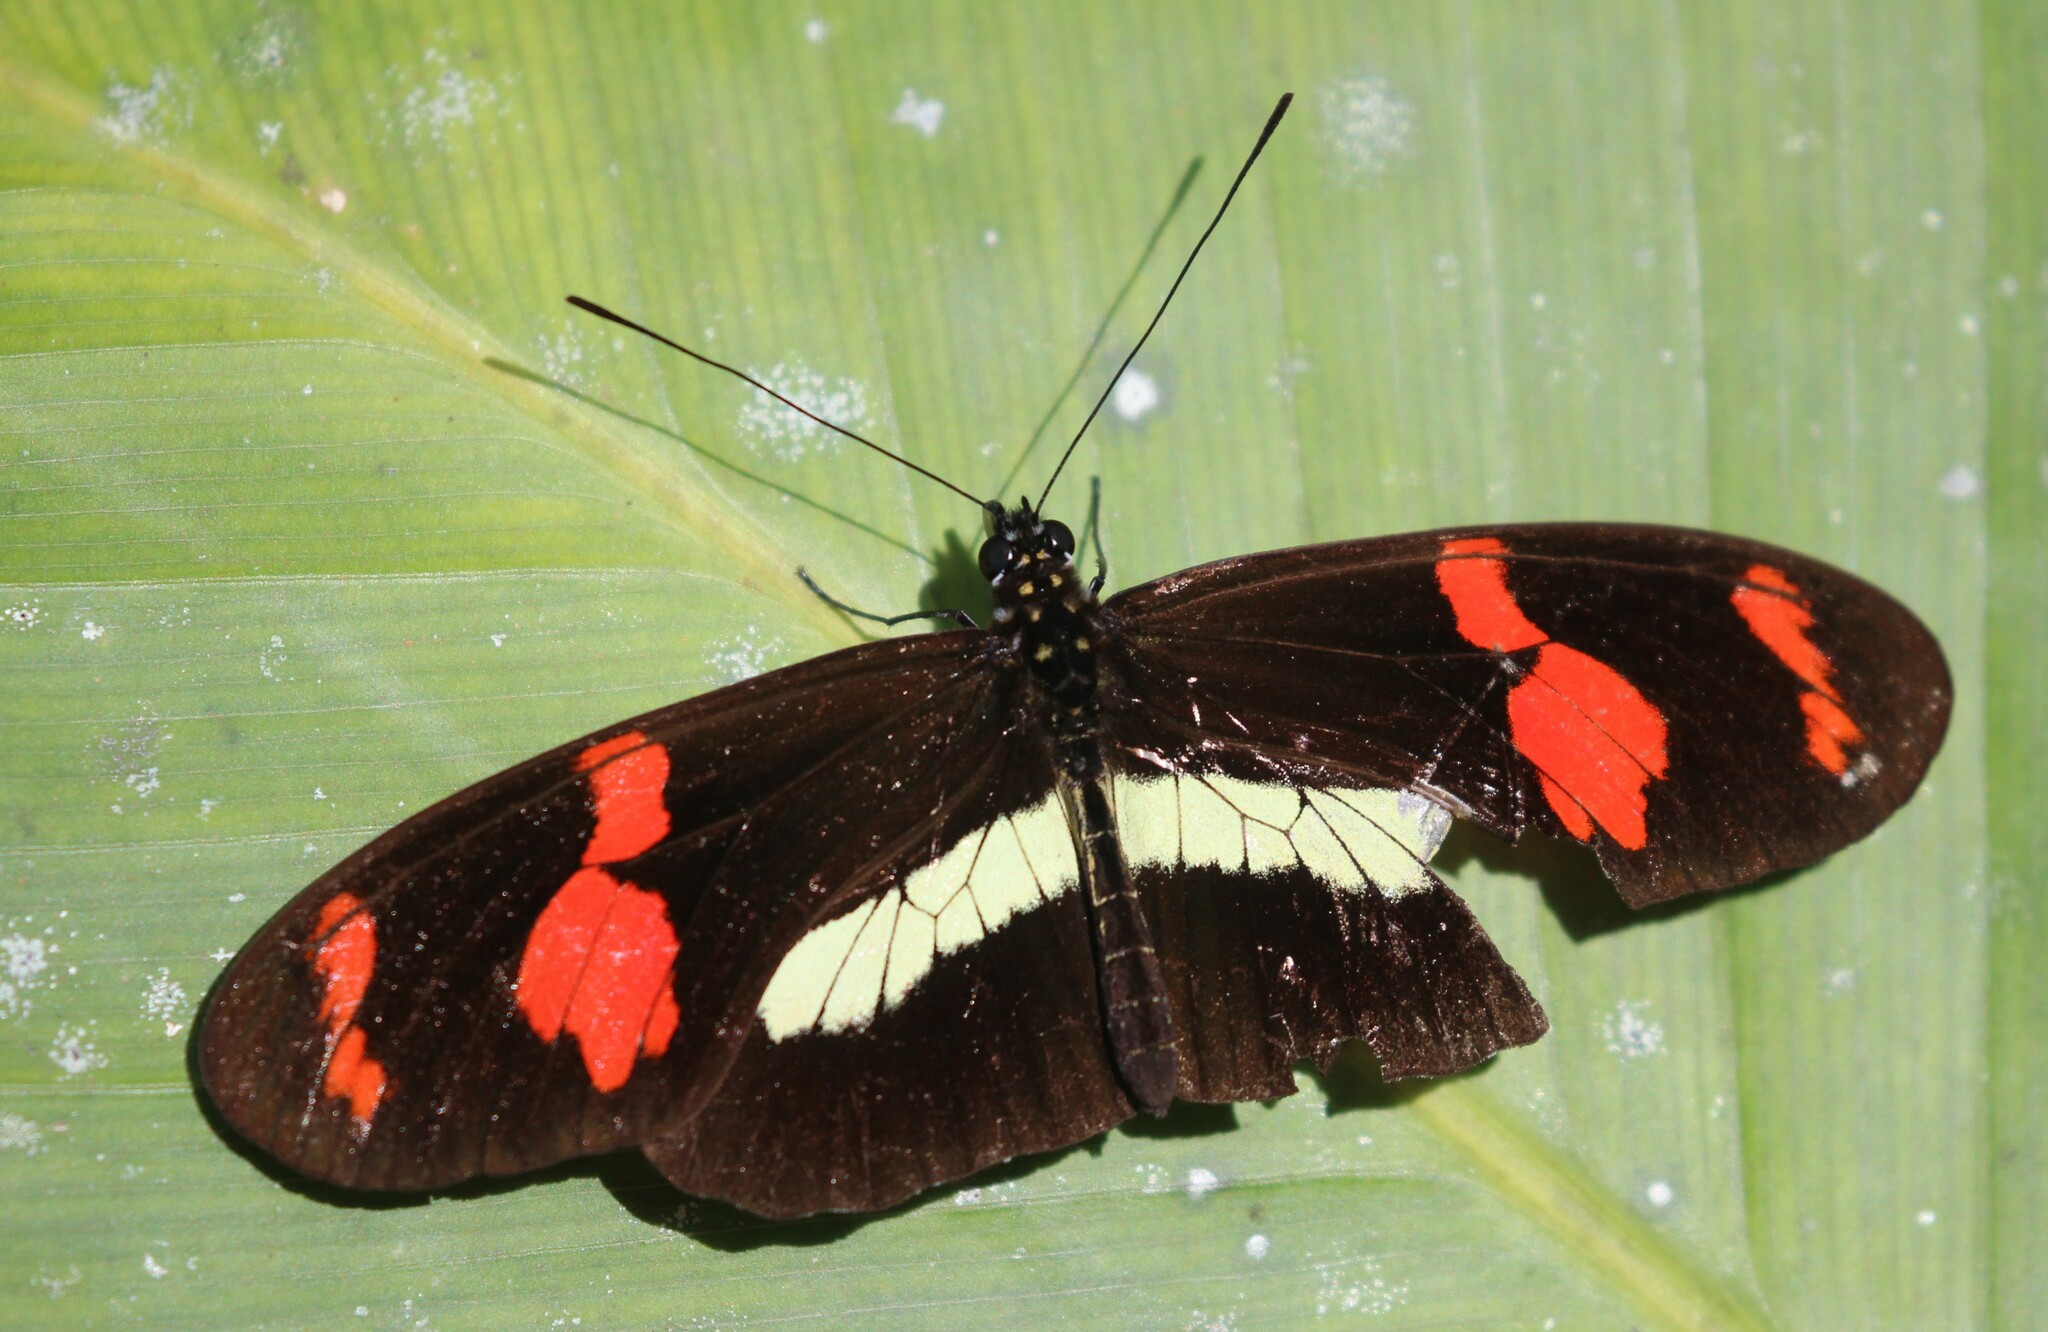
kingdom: Animalia
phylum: Arthropoda
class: Insecta
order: Lepidoptera
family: Nymphalidae
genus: Heliconius
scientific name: Heliconius telesiphe
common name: Telesiphe longwing
